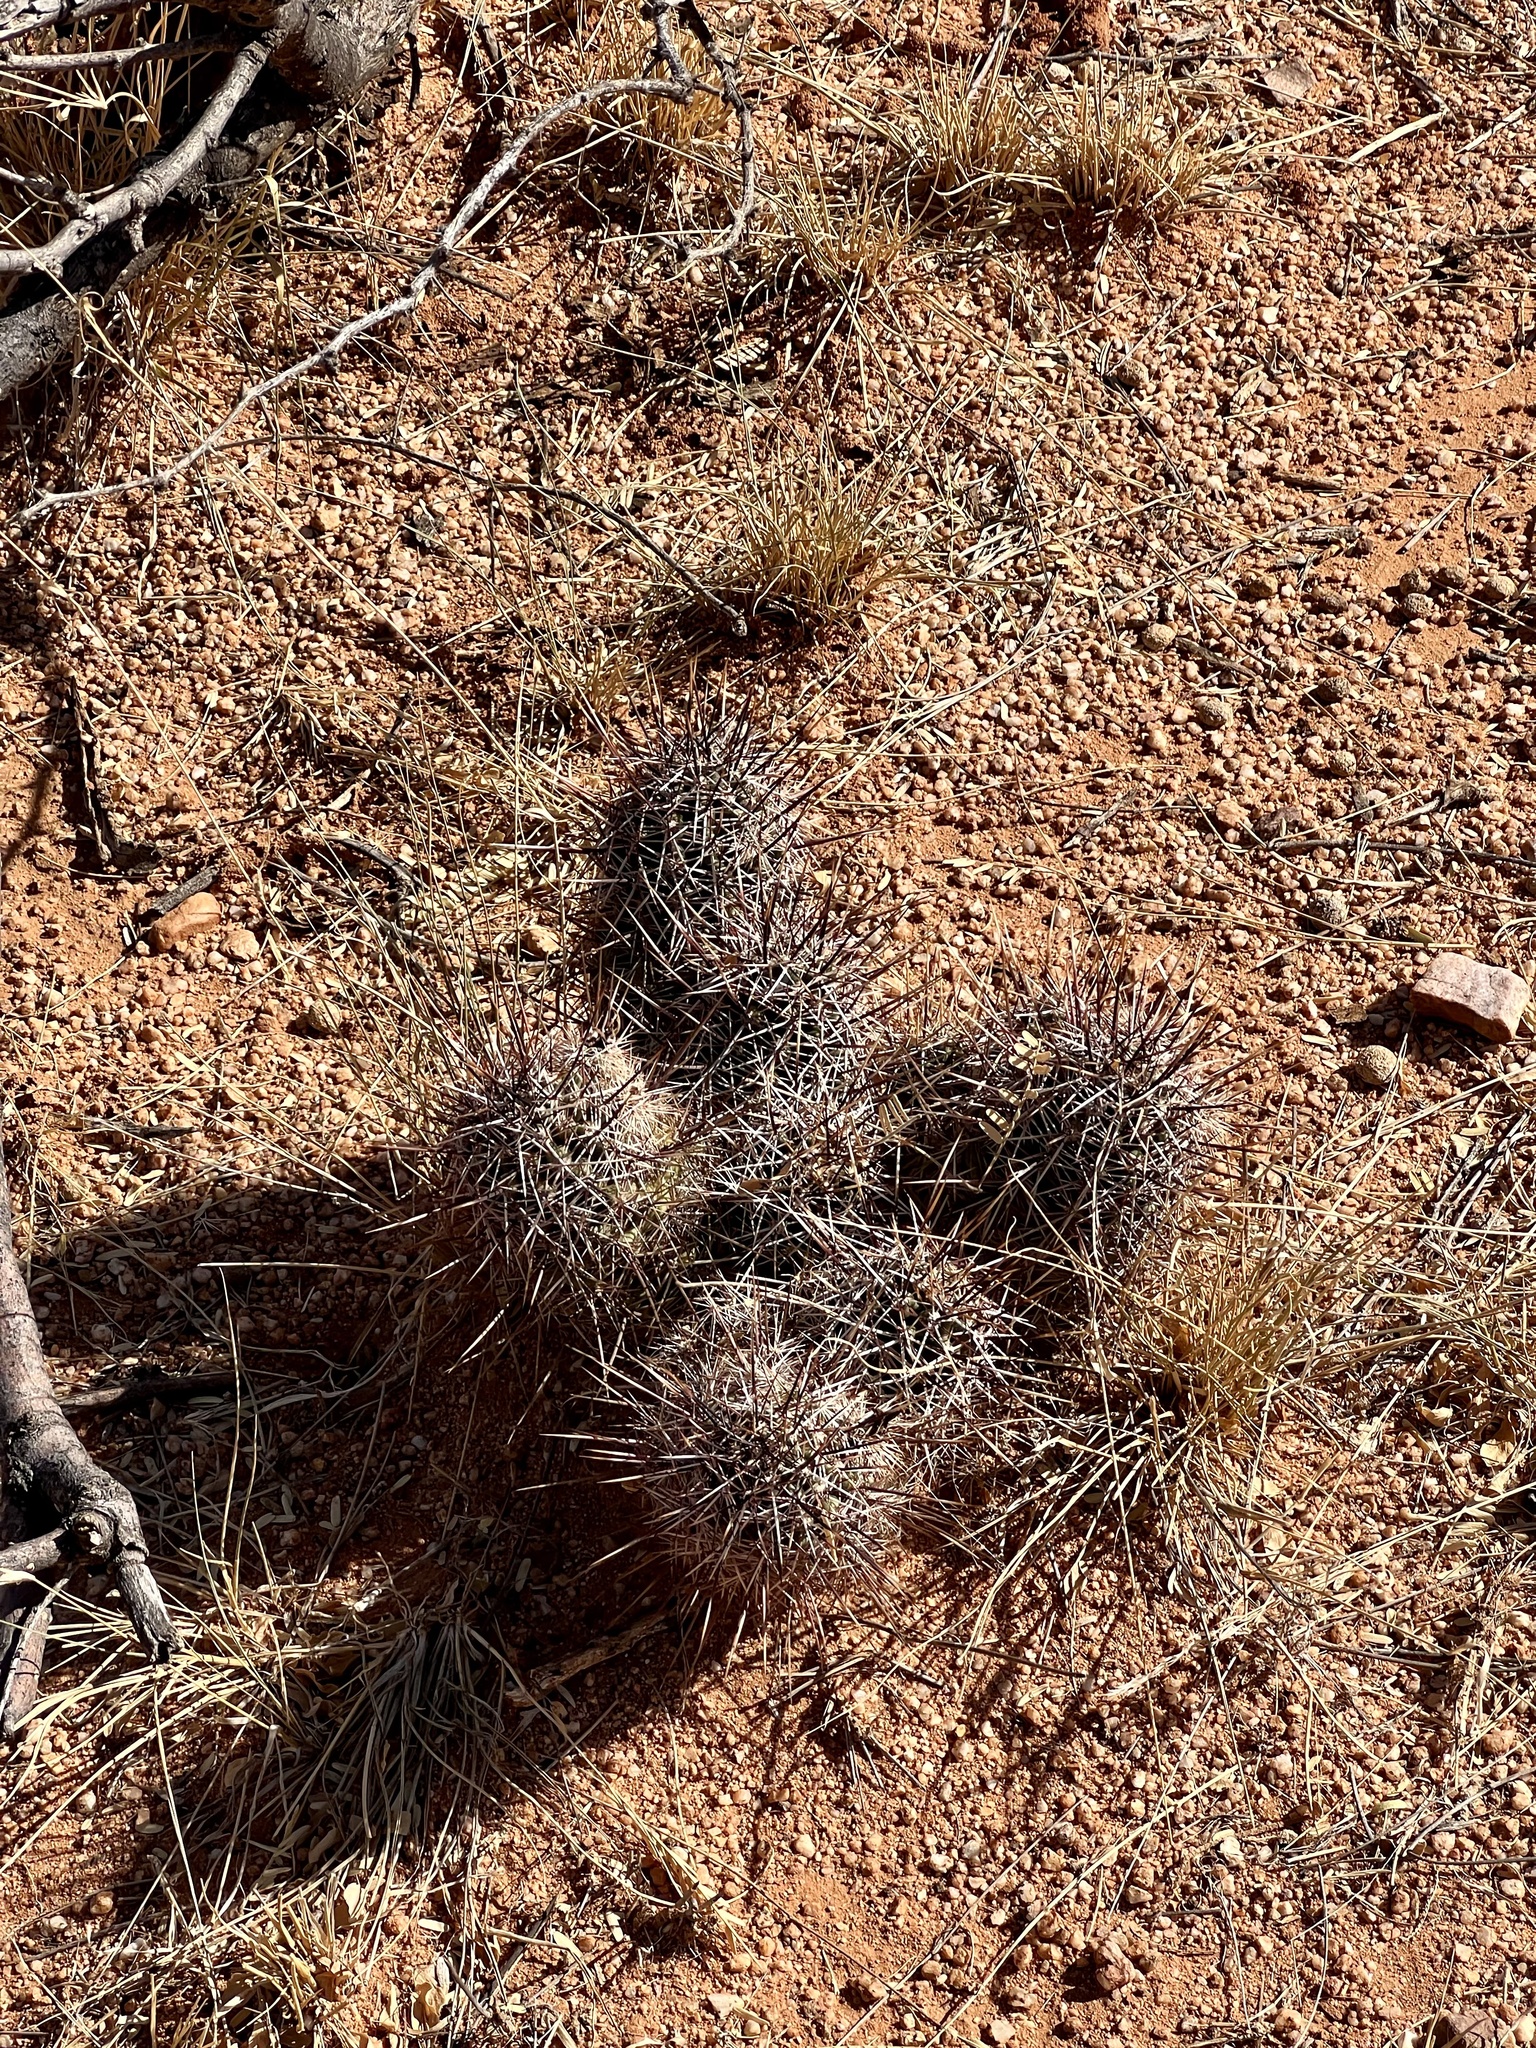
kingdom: Plantae
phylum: Tracheophyta
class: Magnoliopsida
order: Caryophyllales
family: Cactaceae
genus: Echinocereus
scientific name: Echinocereus fasciculatus
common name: Bundle hedgehog
